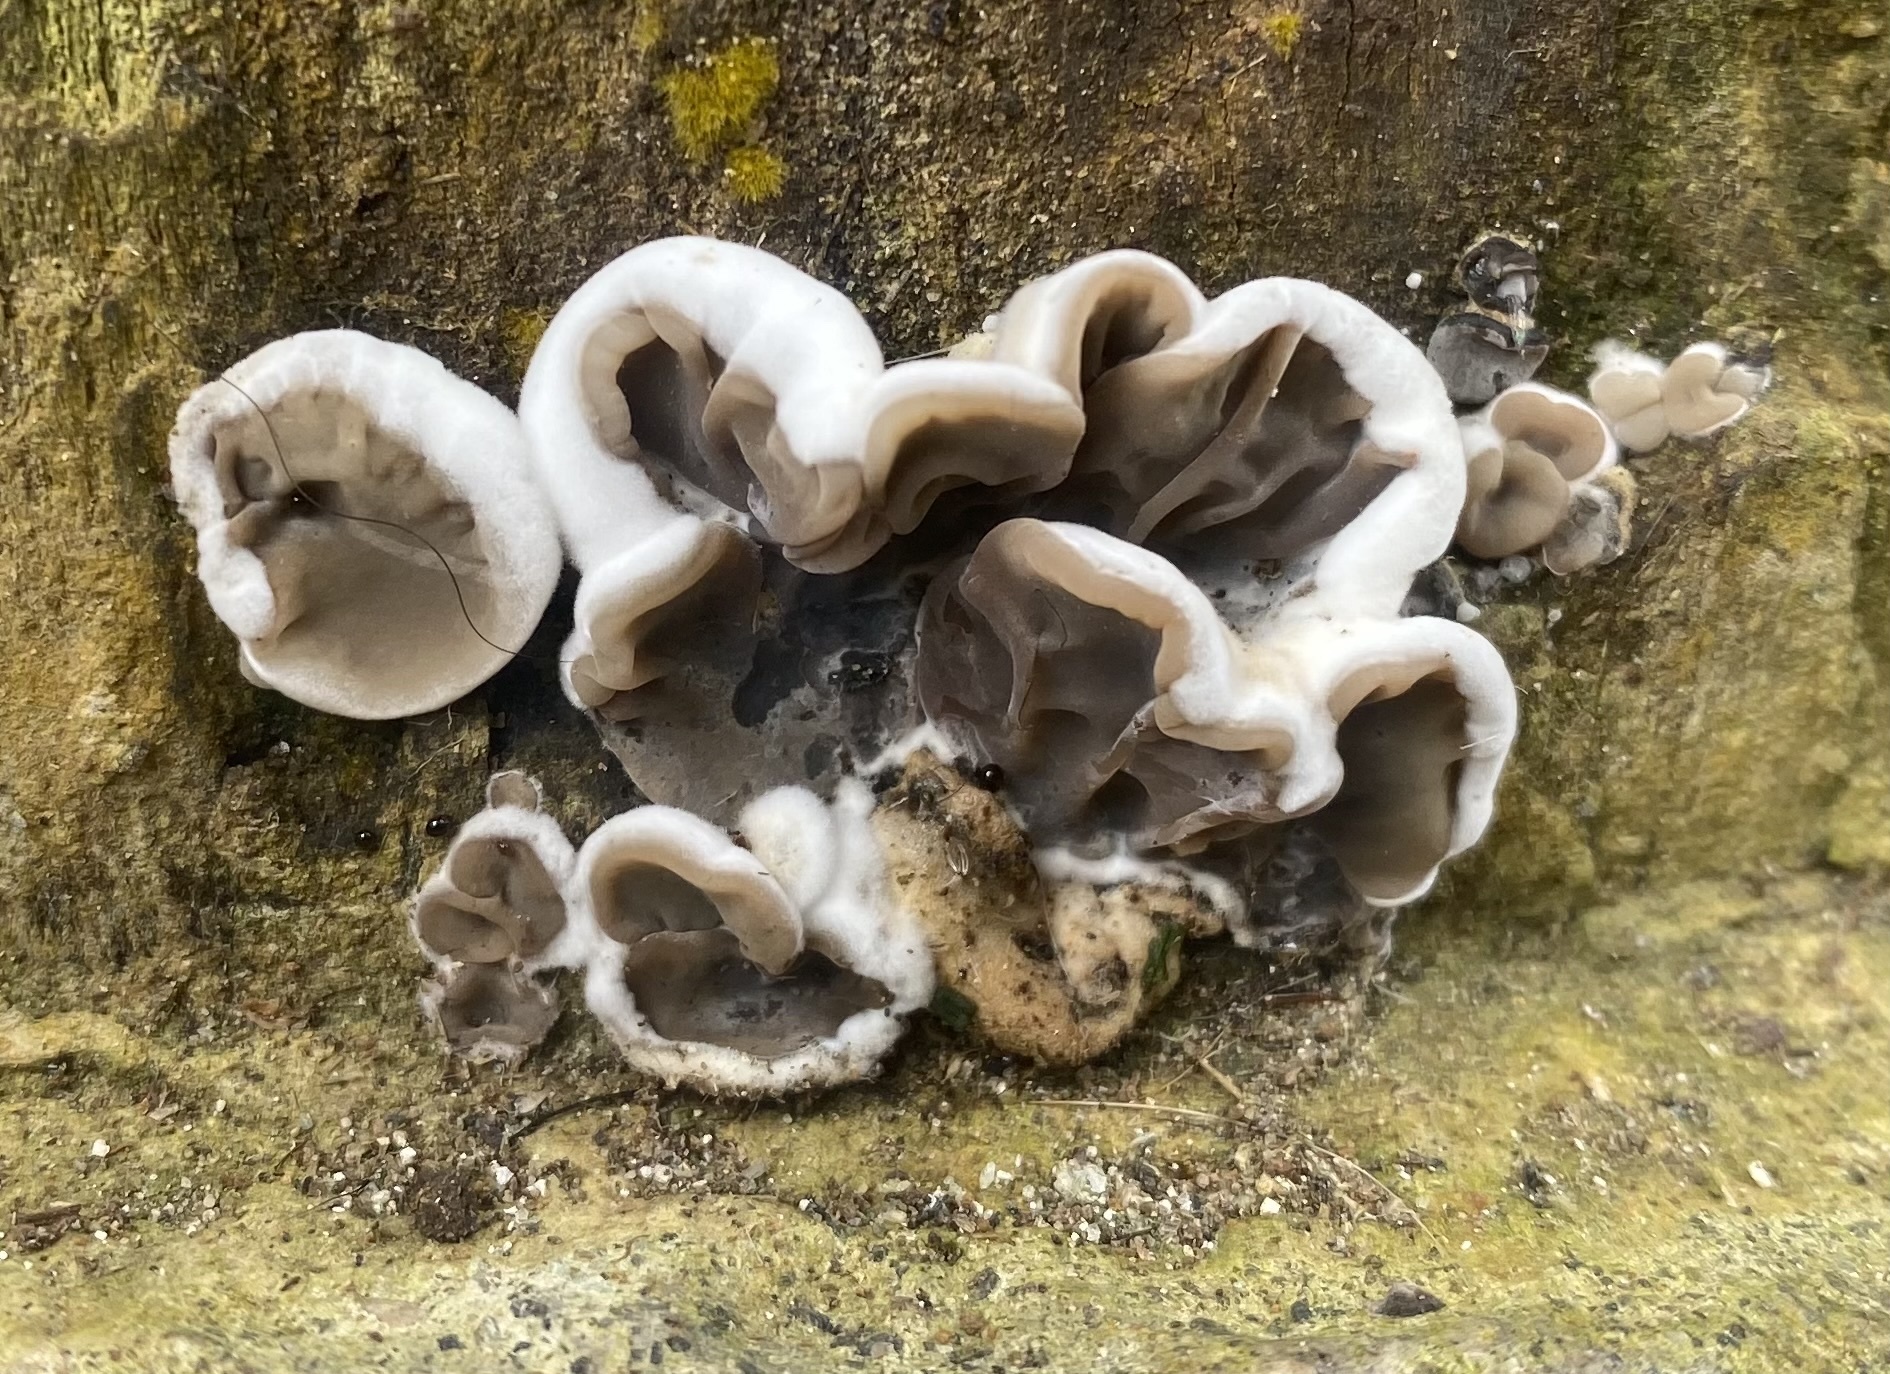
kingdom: Fungi
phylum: Basidiomycota
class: Agaricomycetes
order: Auriculariales
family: Auriculariaceae
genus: Auricularia
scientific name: Auricularia brasiliana
